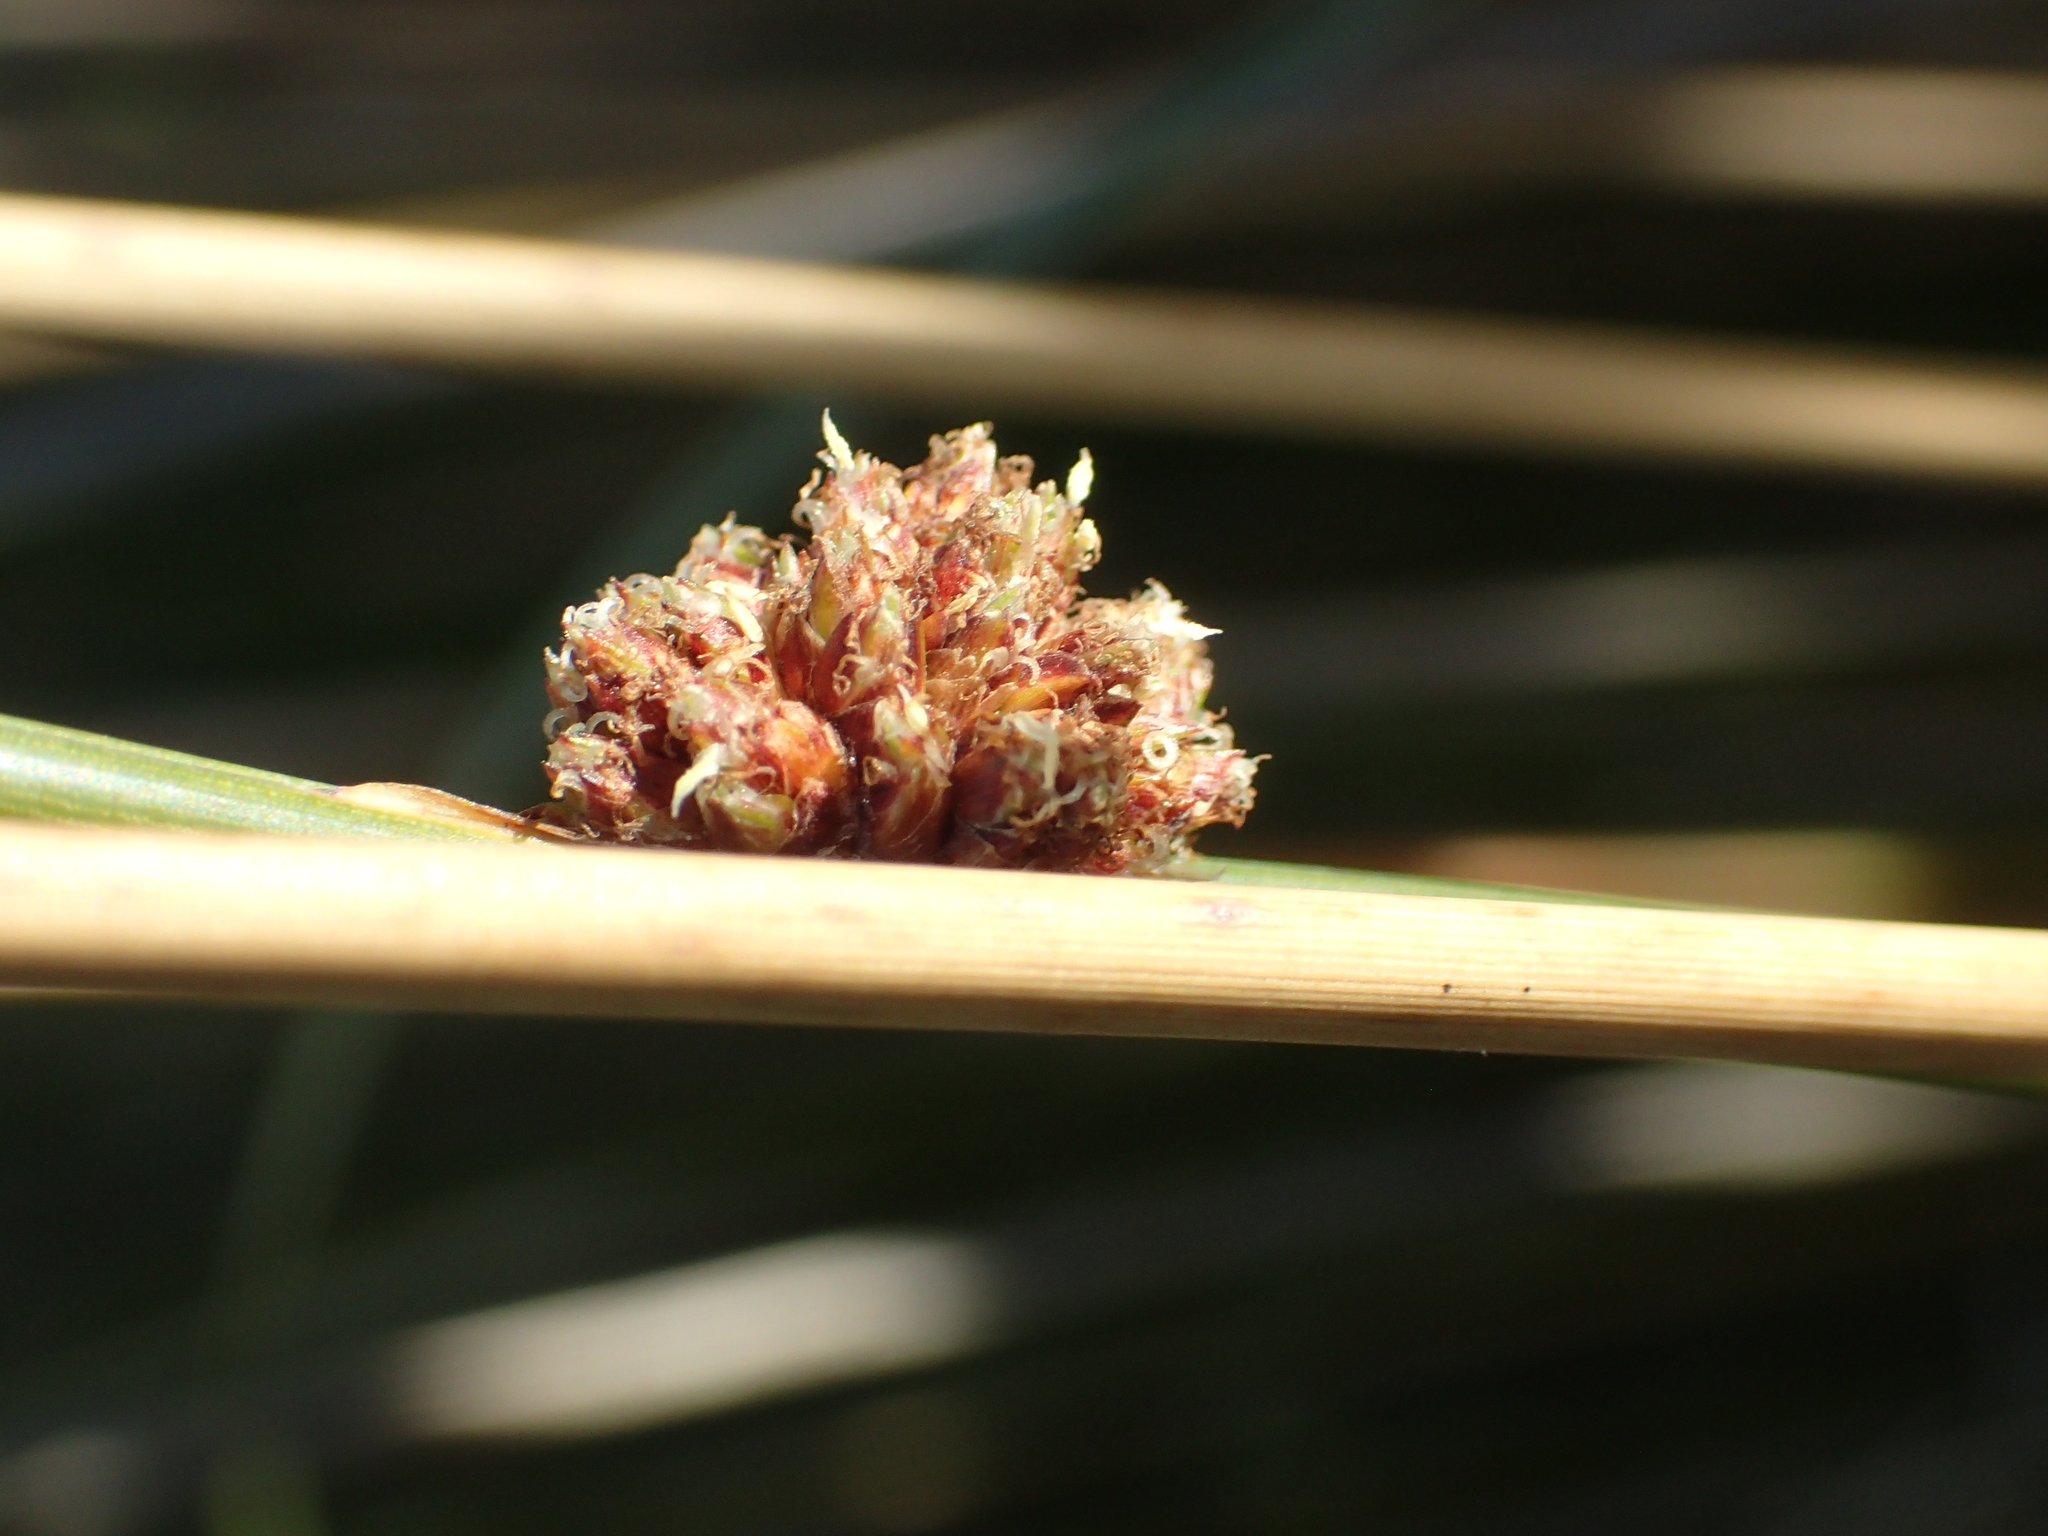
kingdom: Plantae
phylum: Tracheophyta
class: Liliopsida
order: Poales
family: Cyperaceae
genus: Ficinia
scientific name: Ficinia nodosa
